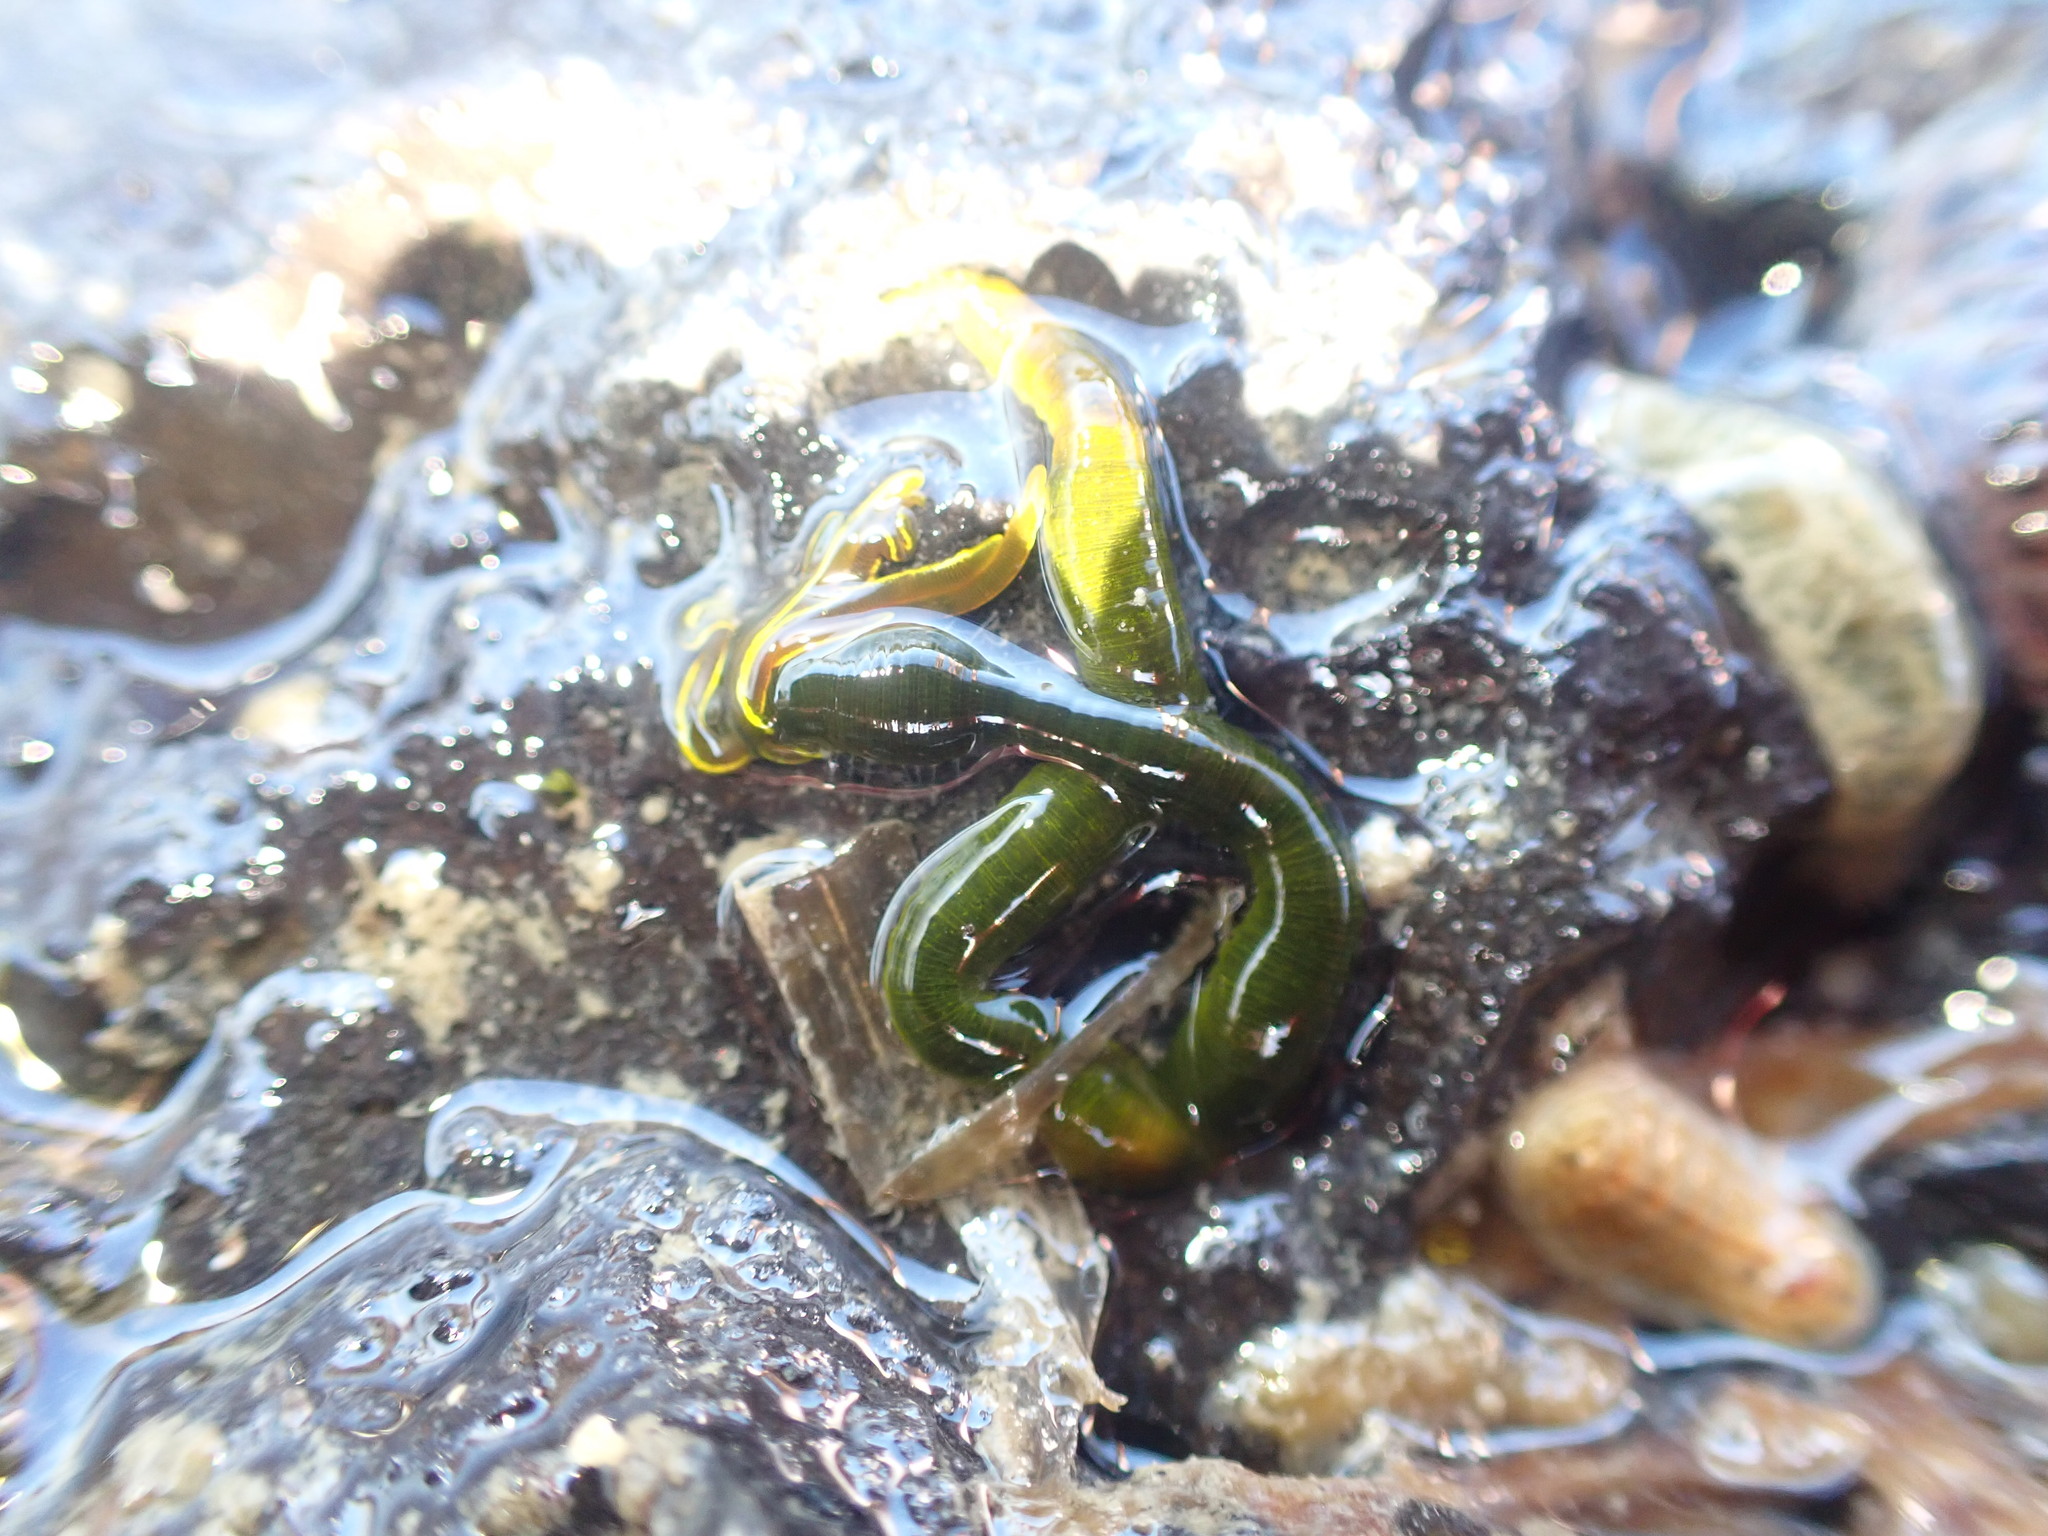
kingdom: Animalia
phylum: Annelida
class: Polychaeta
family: Acrocirridae
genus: Acrocirrus
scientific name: Acrocirrus trisectus
